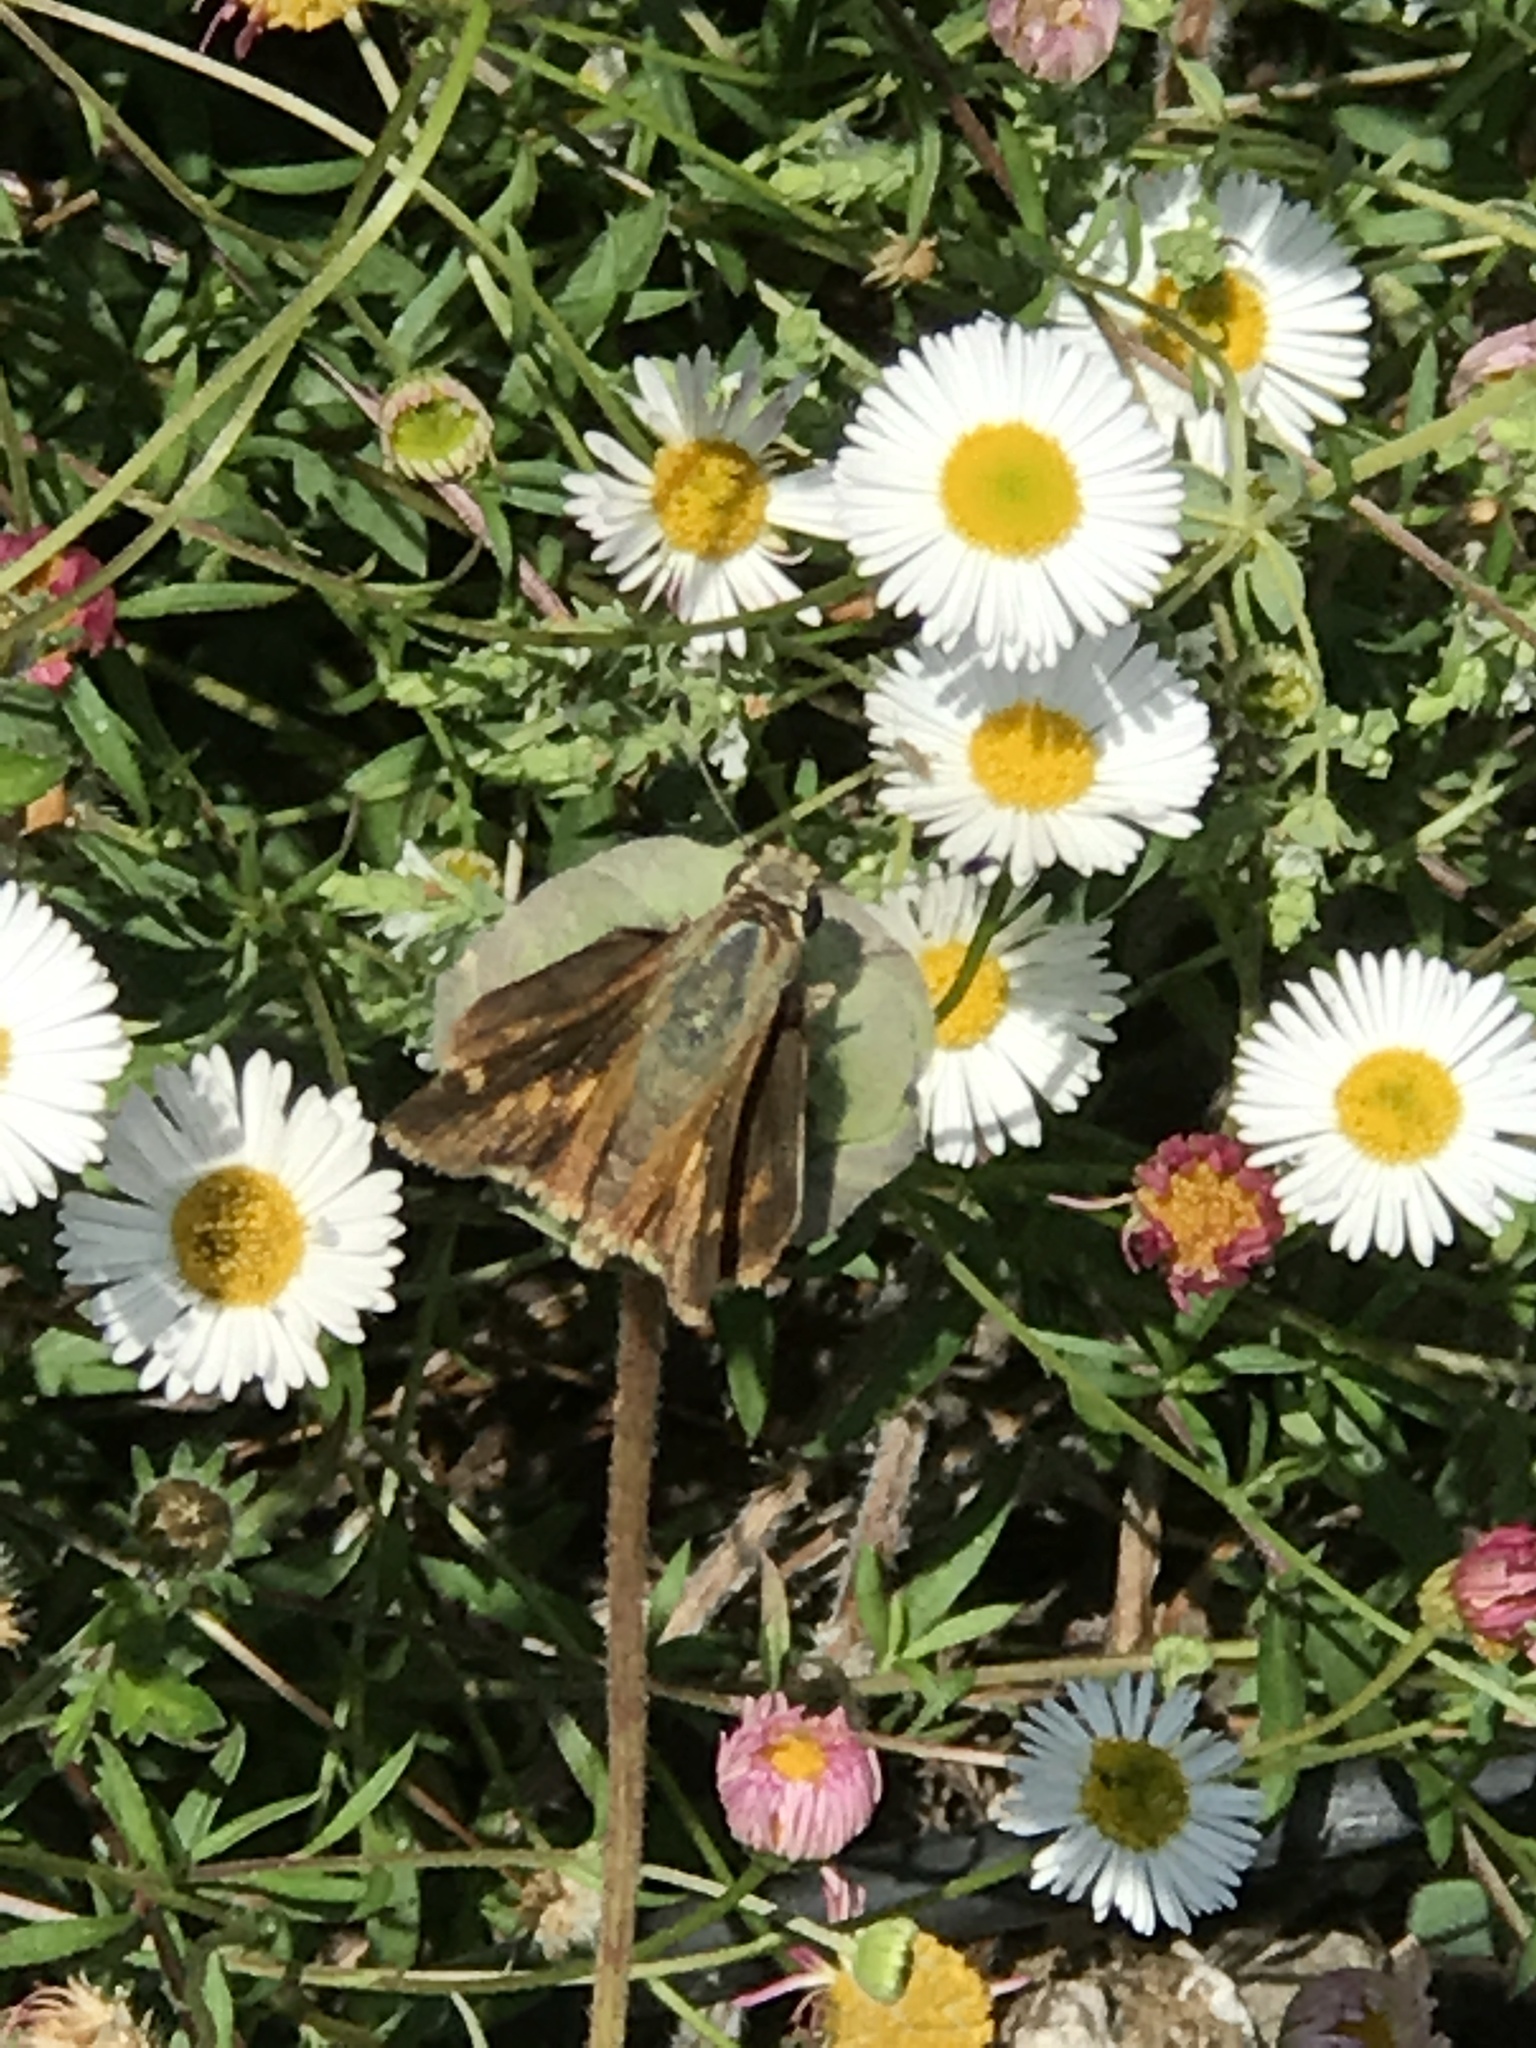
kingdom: Animalia
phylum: Arthropoda
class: Insecta
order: Lepidoptera
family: Hesperiidae
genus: Lon
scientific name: Lon melane
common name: Umber skipper
